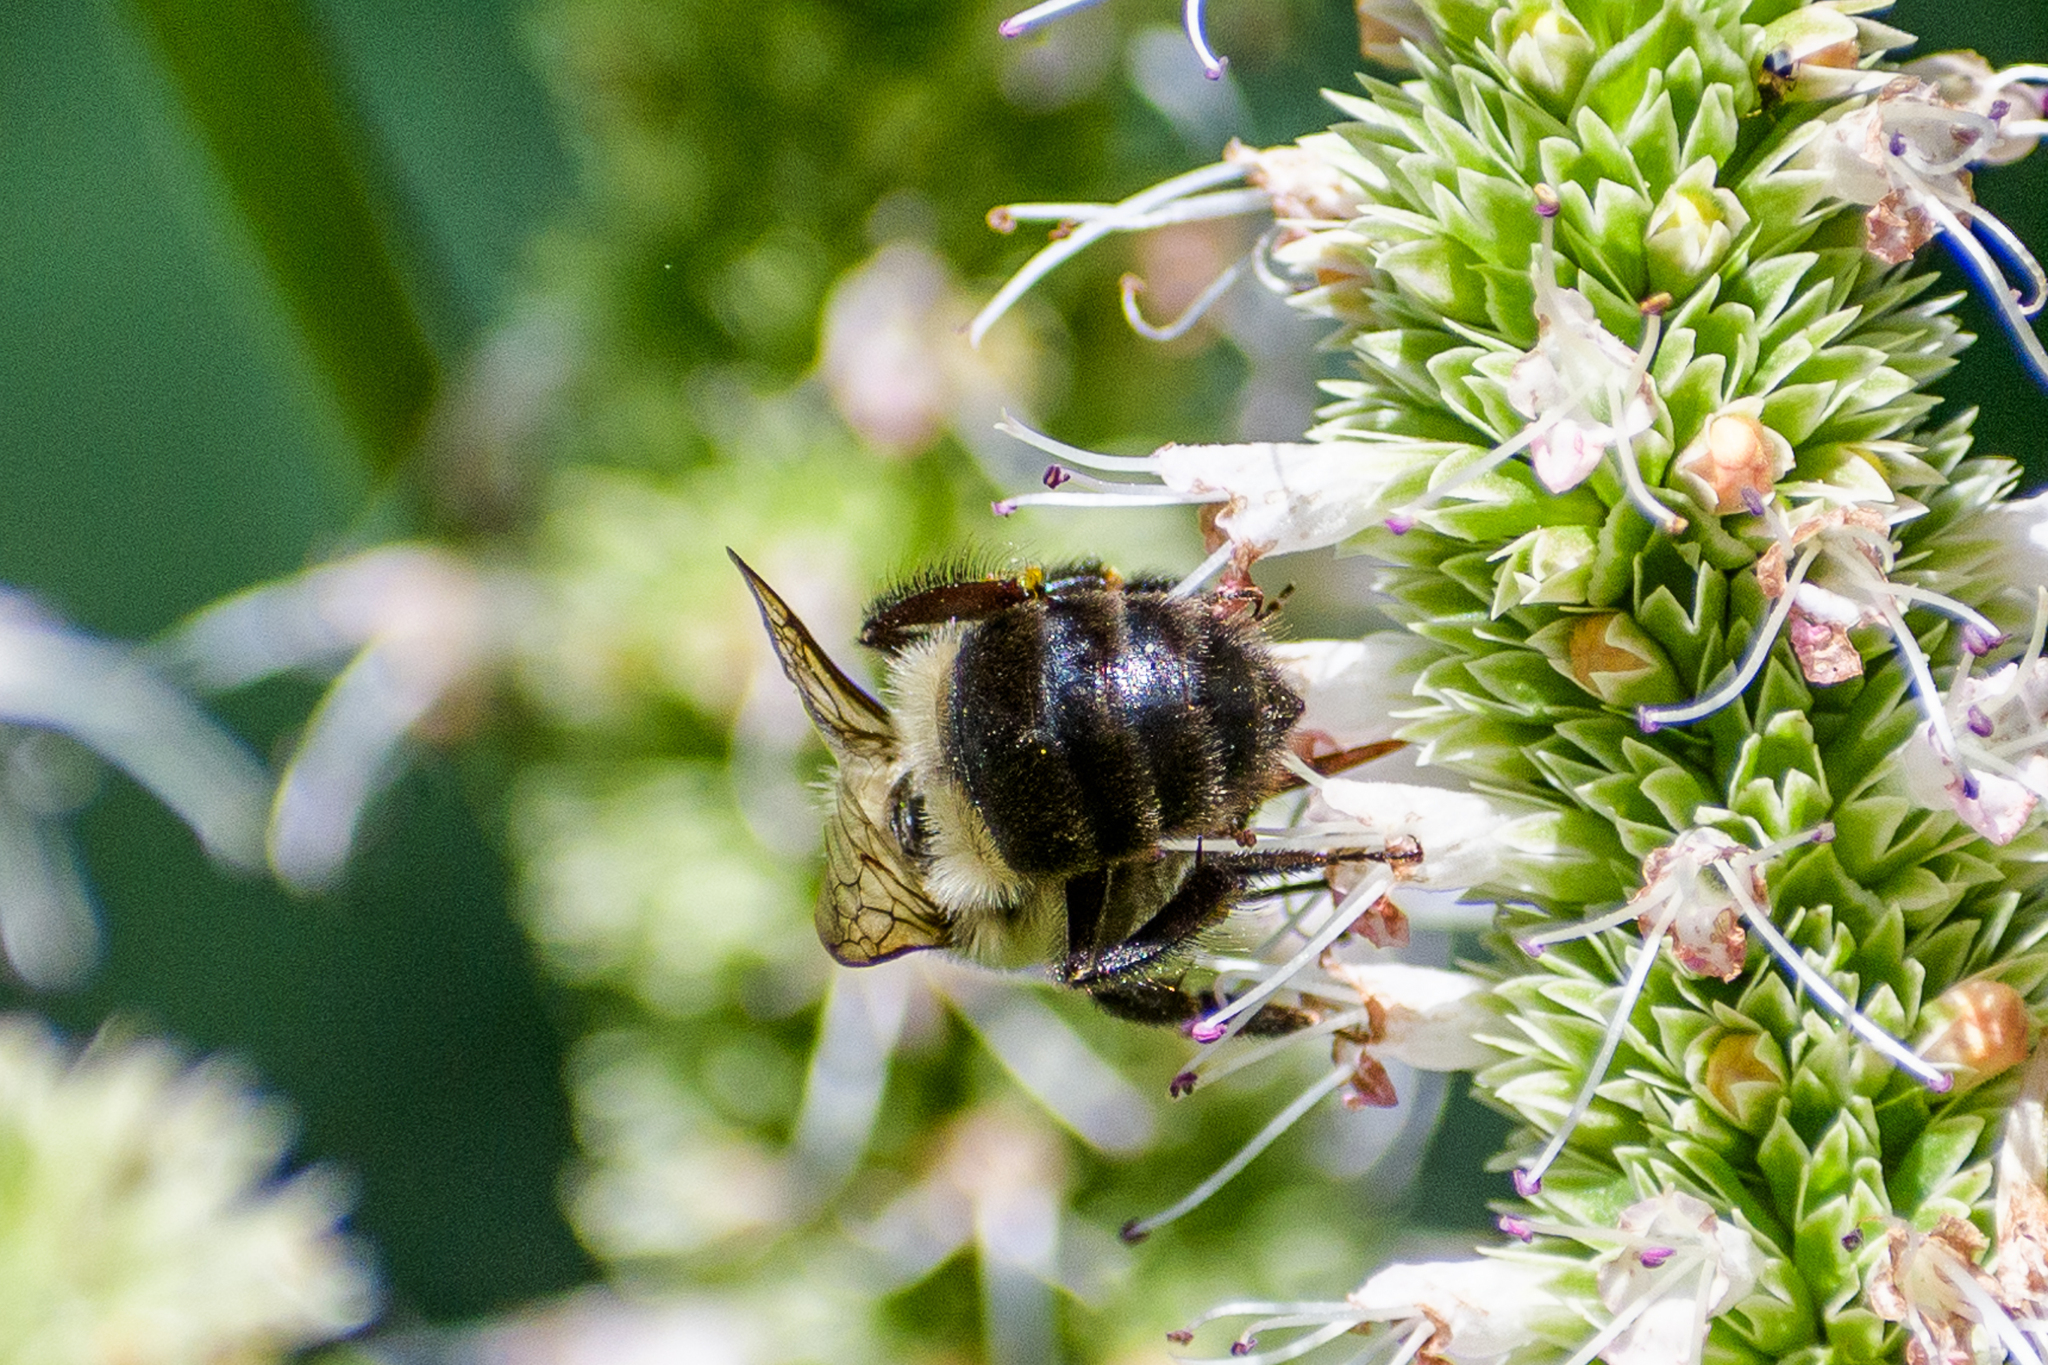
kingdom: Animalia
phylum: Arthropoda
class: Insecta
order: Hymenoptera
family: Apidae
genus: Bombus
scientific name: Bombus impatiens
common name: Common eastern bumble bee
